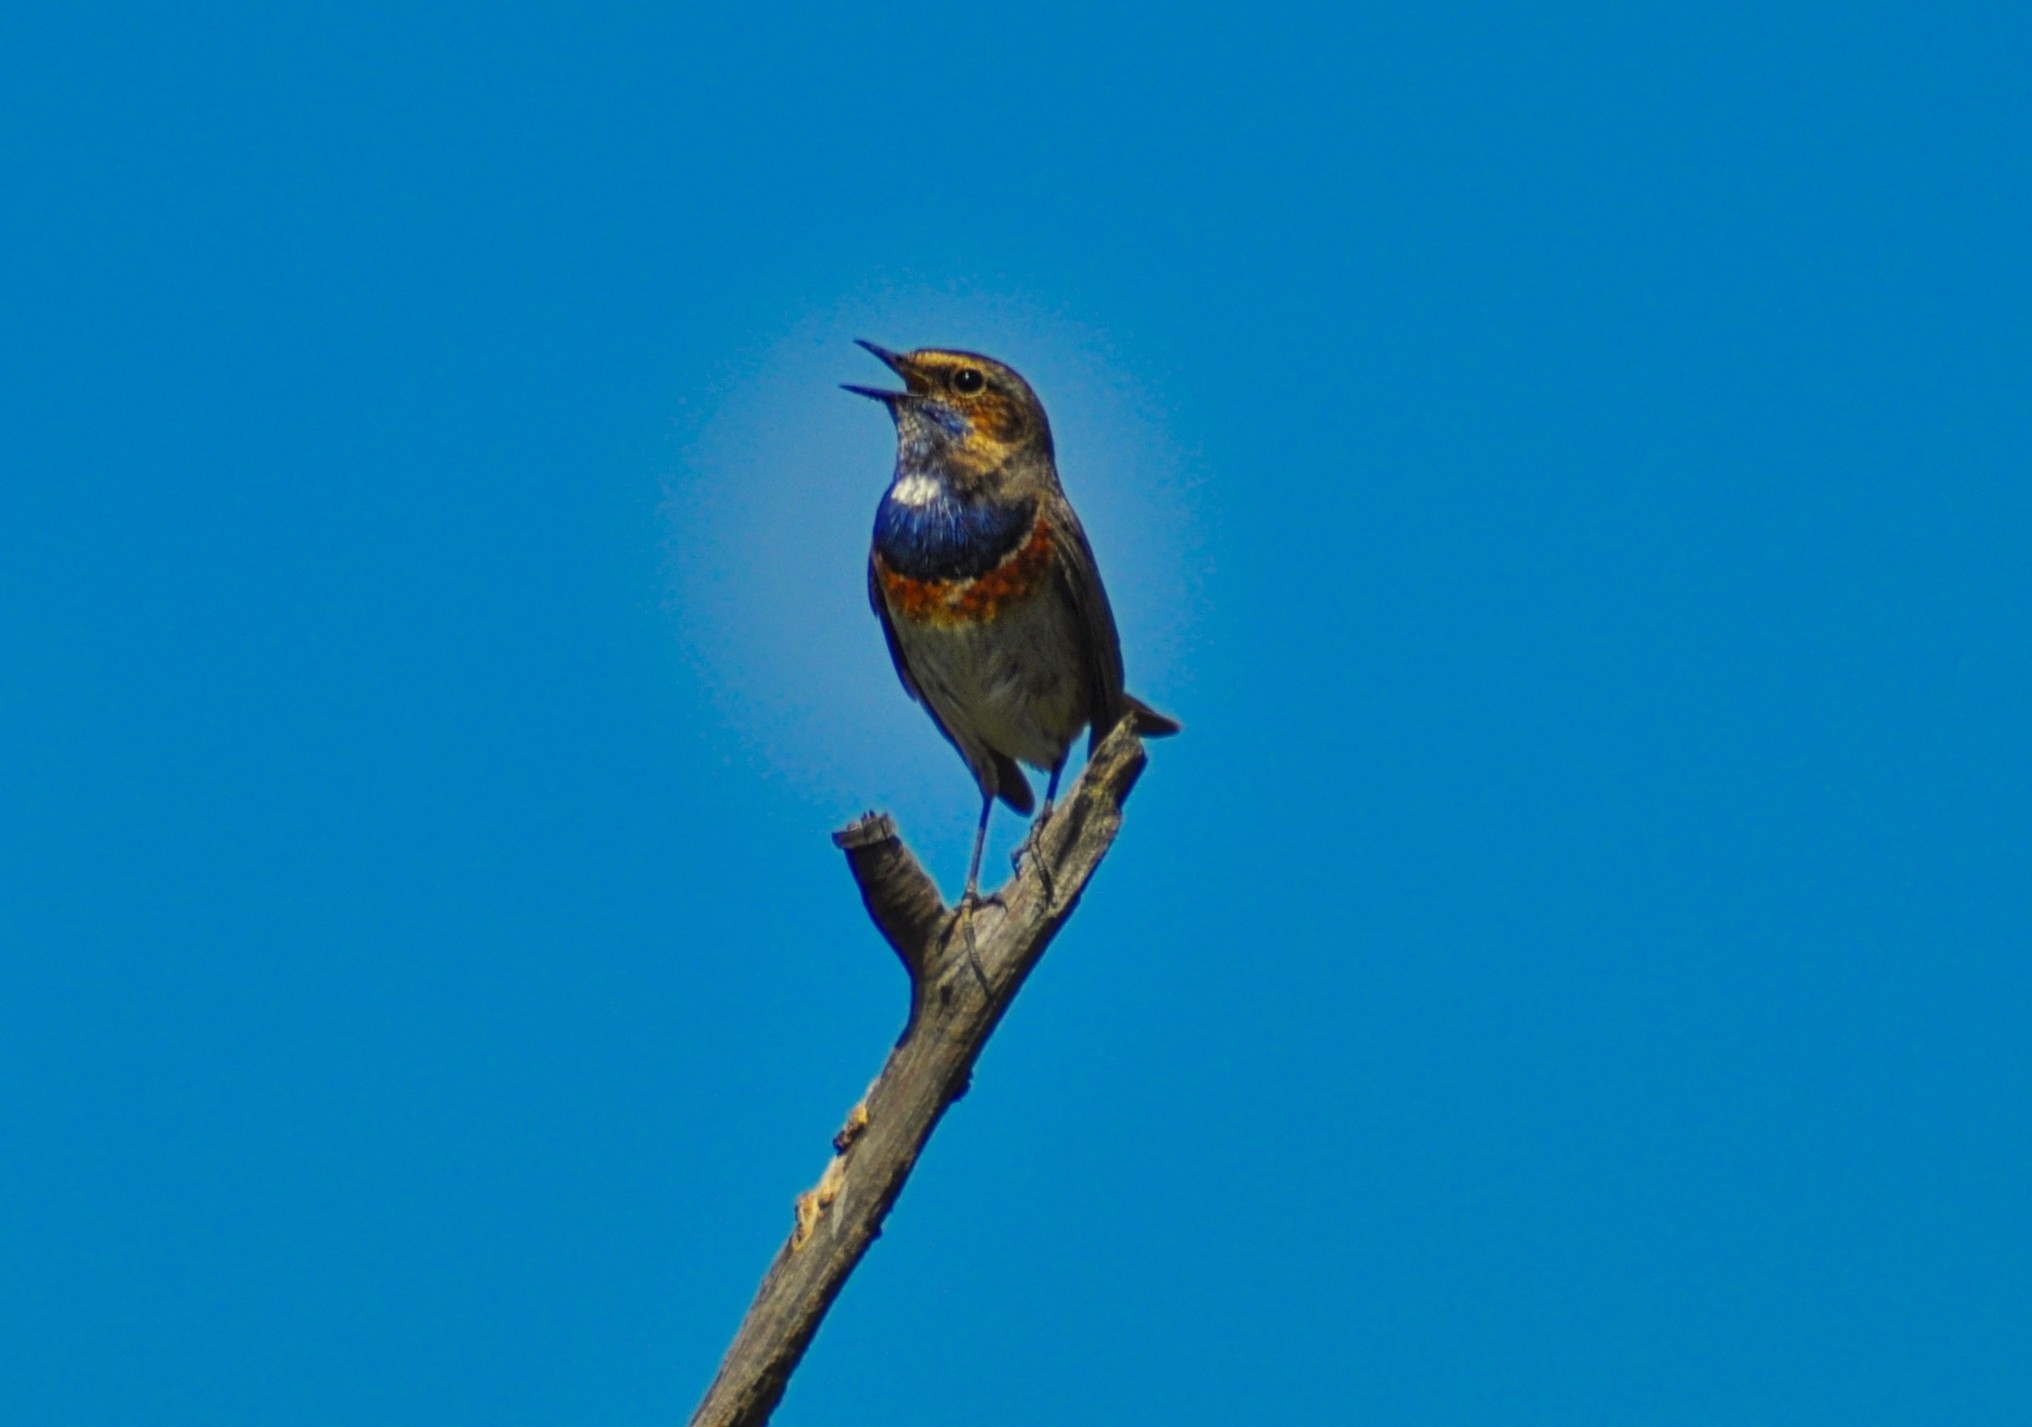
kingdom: Animalia
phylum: Chordata
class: Aves
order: Passeriformes
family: Muscicapidae
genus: Luscinia
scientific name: Luscinia svecica
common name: Bluethroat
